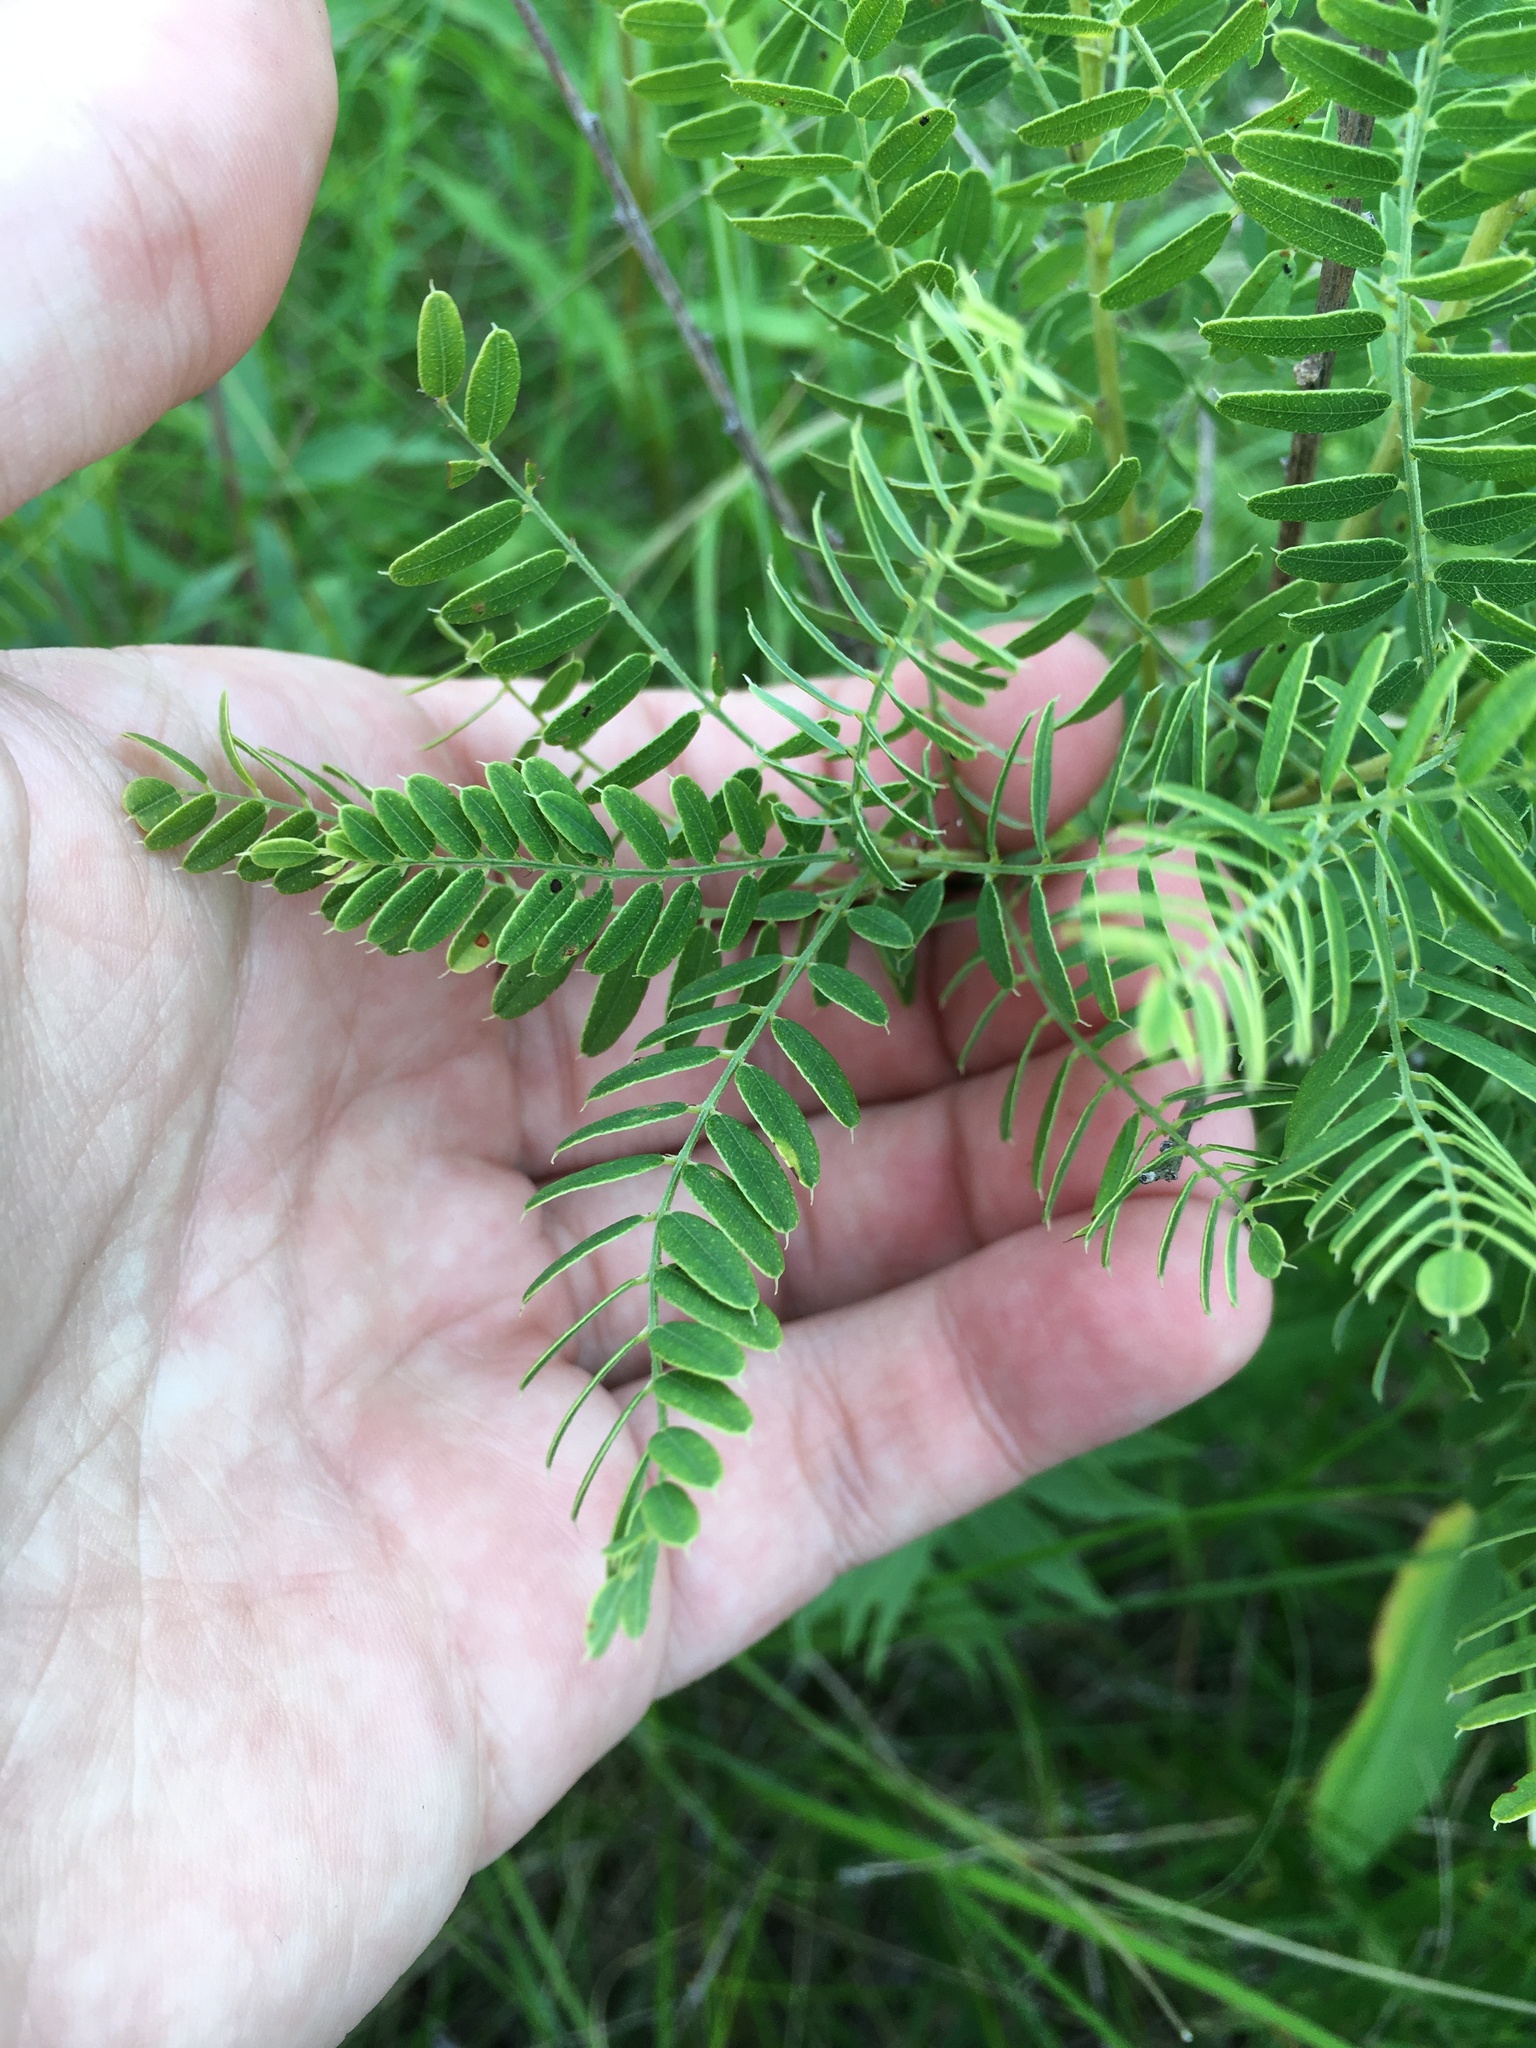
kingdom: Plantae
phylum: Tracheophyta
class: Magnoliopsida
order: Fabales
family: Fabaceae
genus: Amorpha
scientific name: Amorpha nana
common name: Fragrant false indigo
